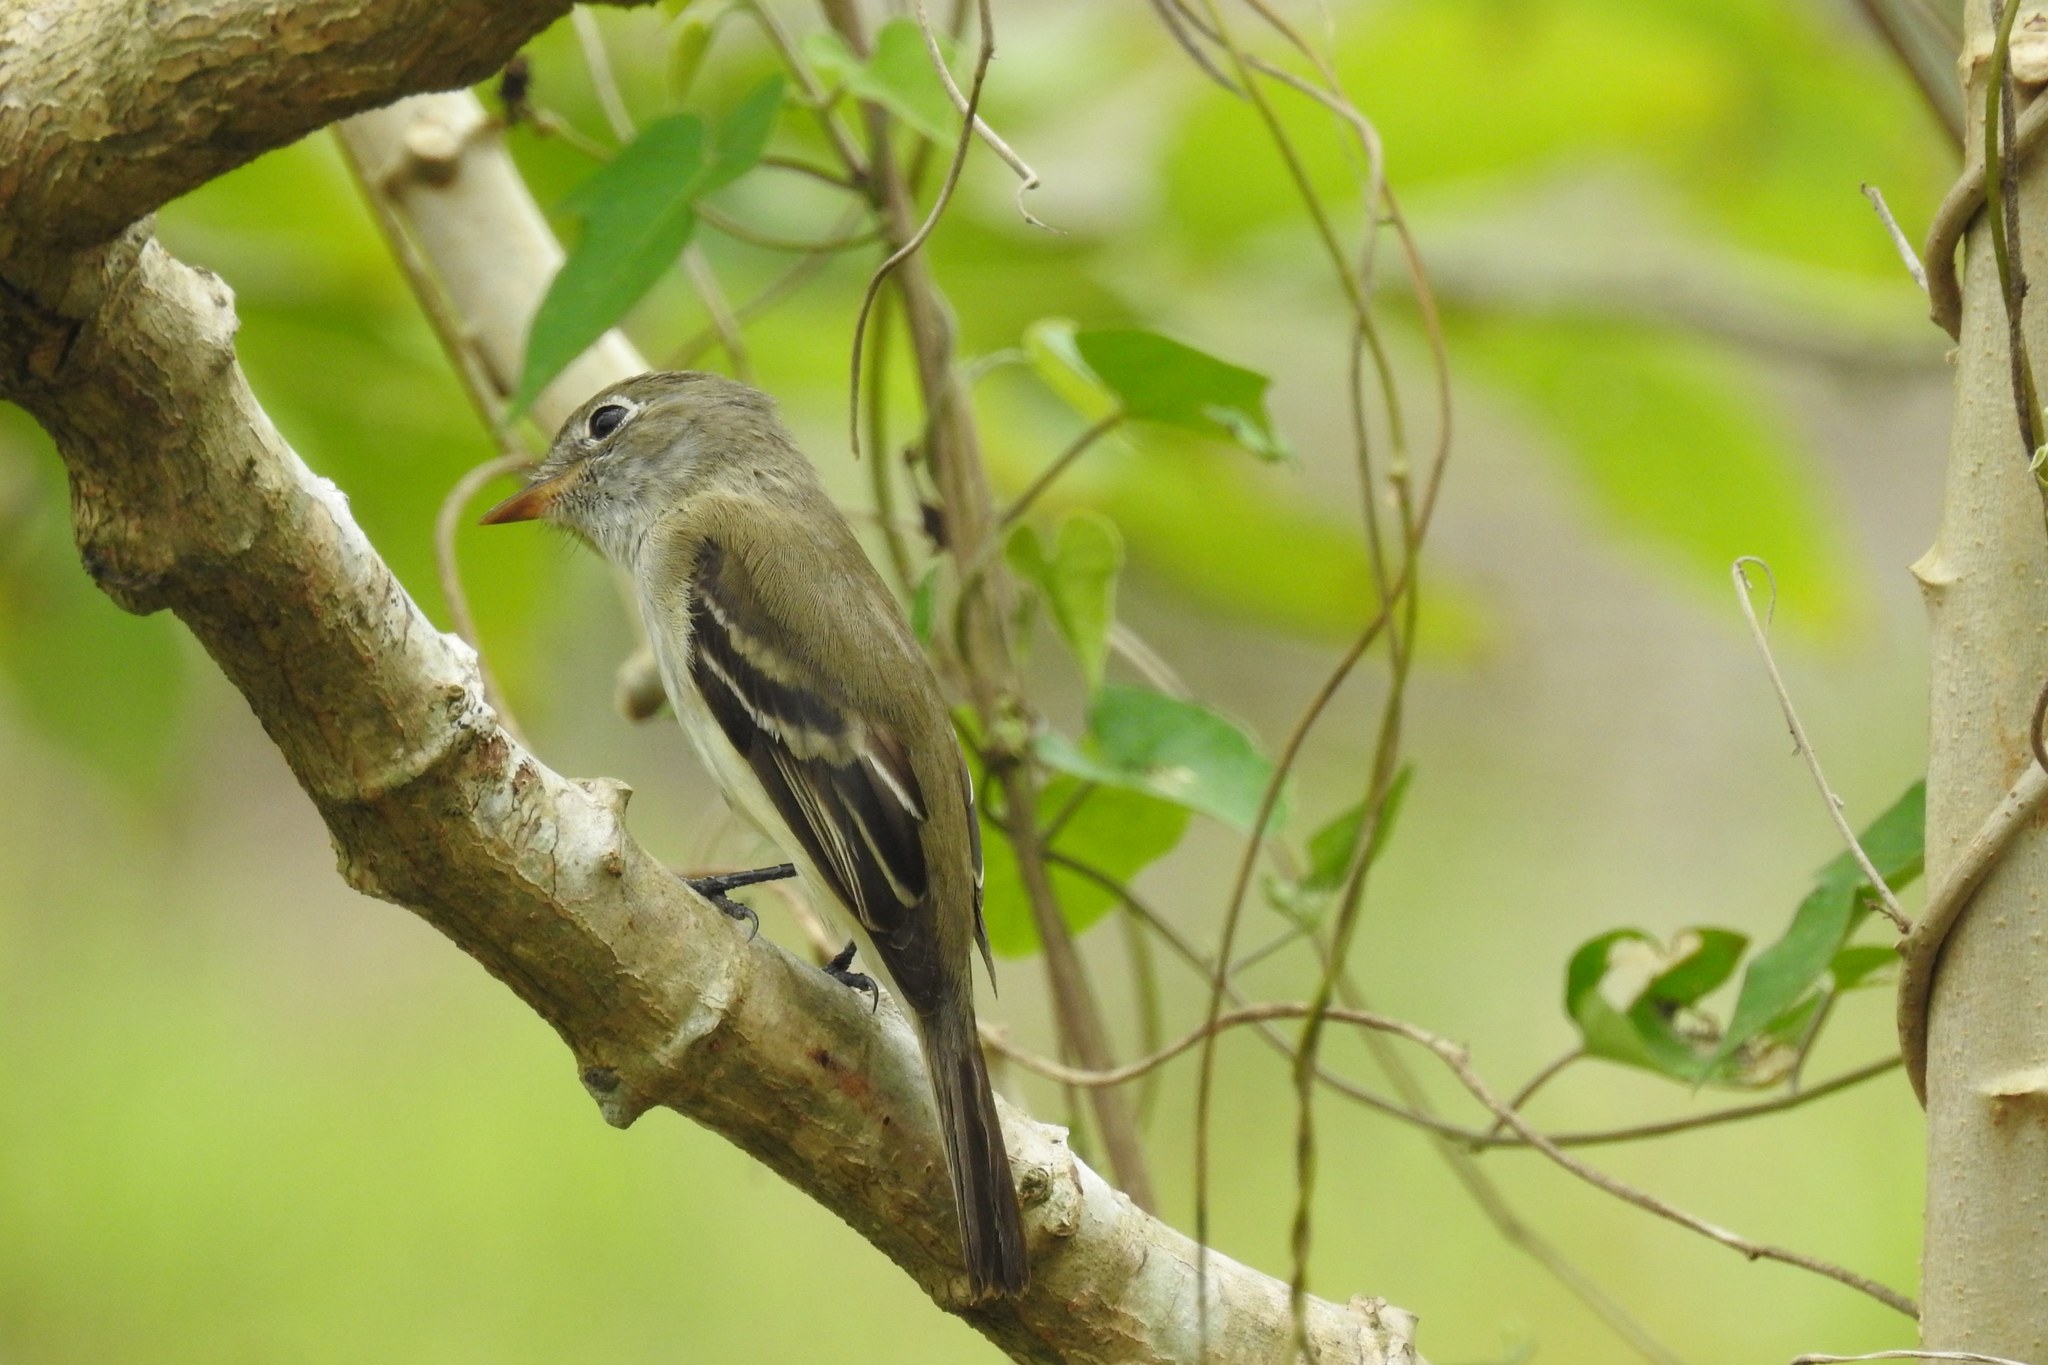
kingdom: Animalia
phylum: Chordata
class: Aves
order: Passeriformes
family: Tyrannidae
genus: Empidonax
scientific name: Empidonax minimus
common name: Least flycatcher
